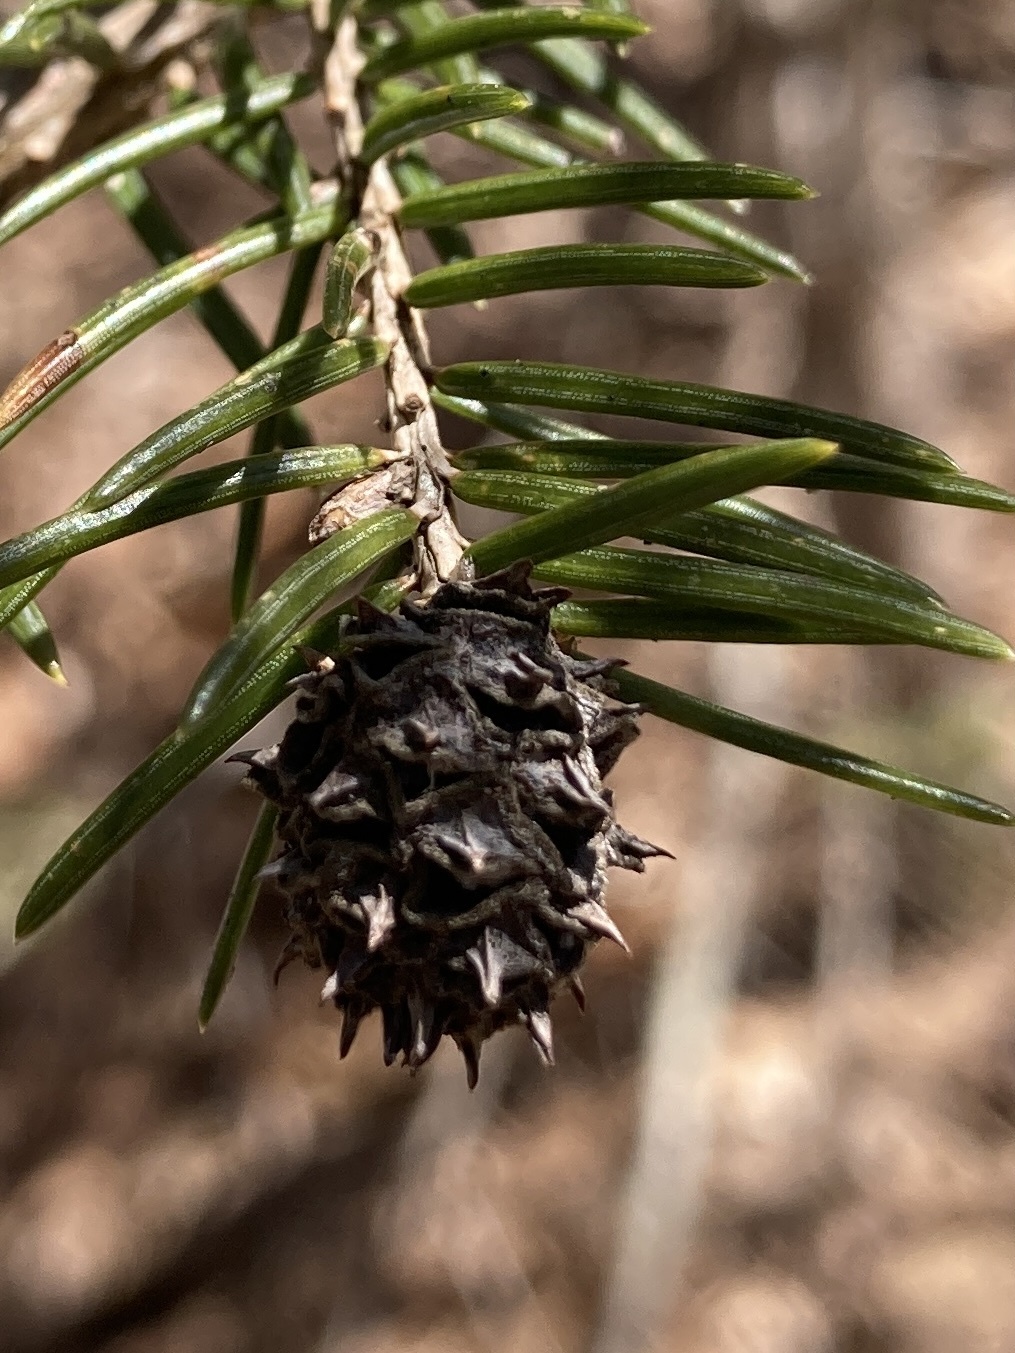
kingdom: Animalia
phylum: Arthropoda
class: Insecta
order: Hemiptera
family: Adelgidae
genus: Adelges
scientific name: Adelges abietis
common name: Eastern spruce gall adelgid
